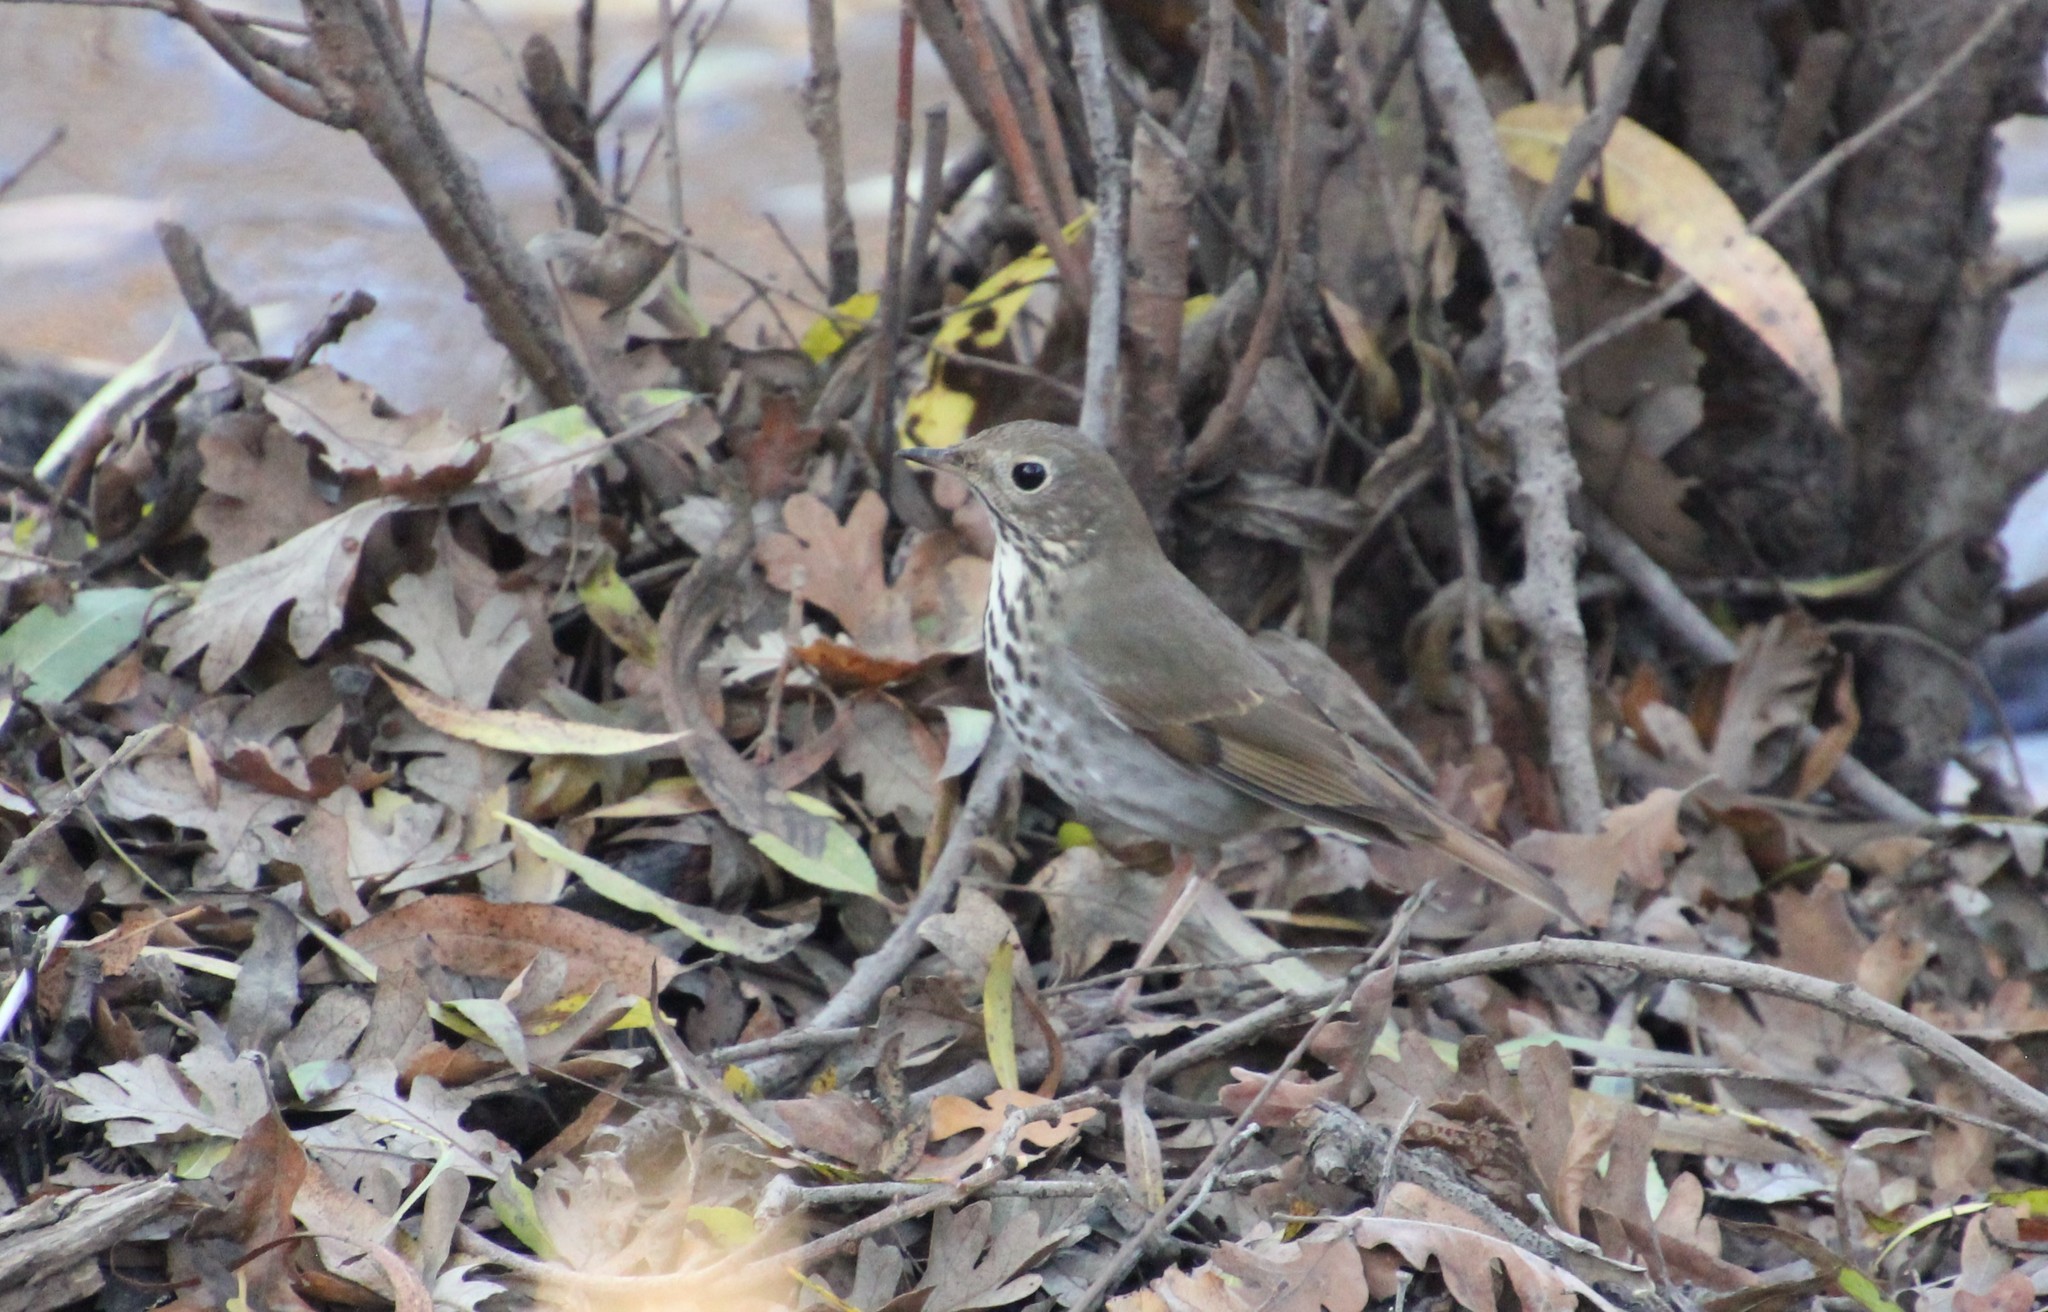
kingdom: Animalia
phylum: Chordata
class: Aves
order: Passeriformes
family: Turdidae
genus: Catharus
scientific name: Catharus guttatus
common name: Hermit thrush
